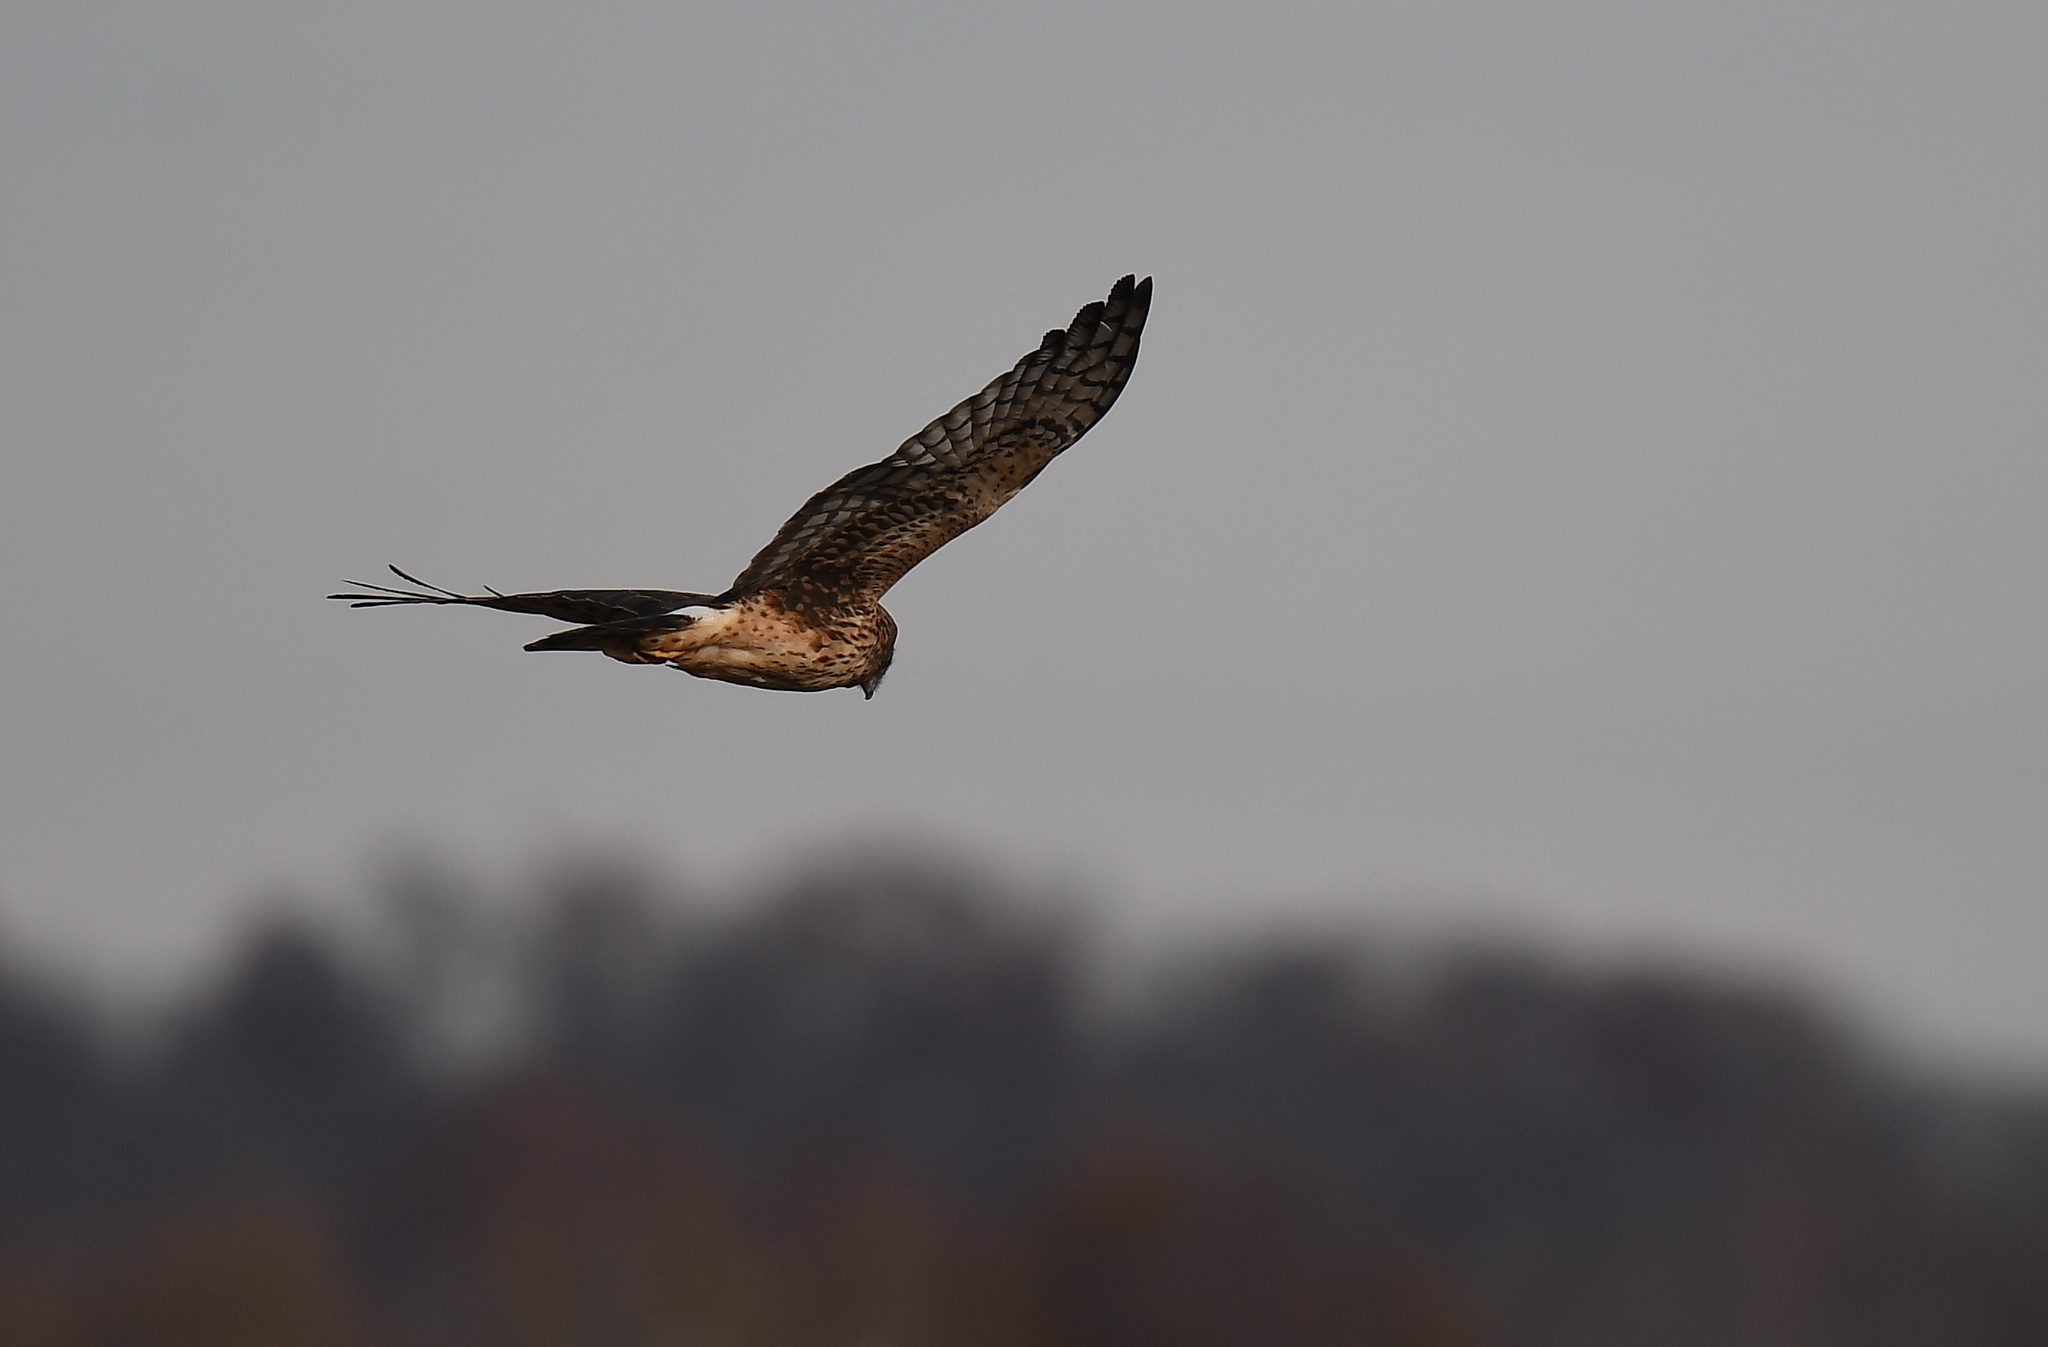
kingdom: Animalia
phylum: Chordata
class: Aves
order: Accipitriformes
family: Accipitridae
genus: Circus
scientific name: Circus cyaneus
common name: Hen harrier
